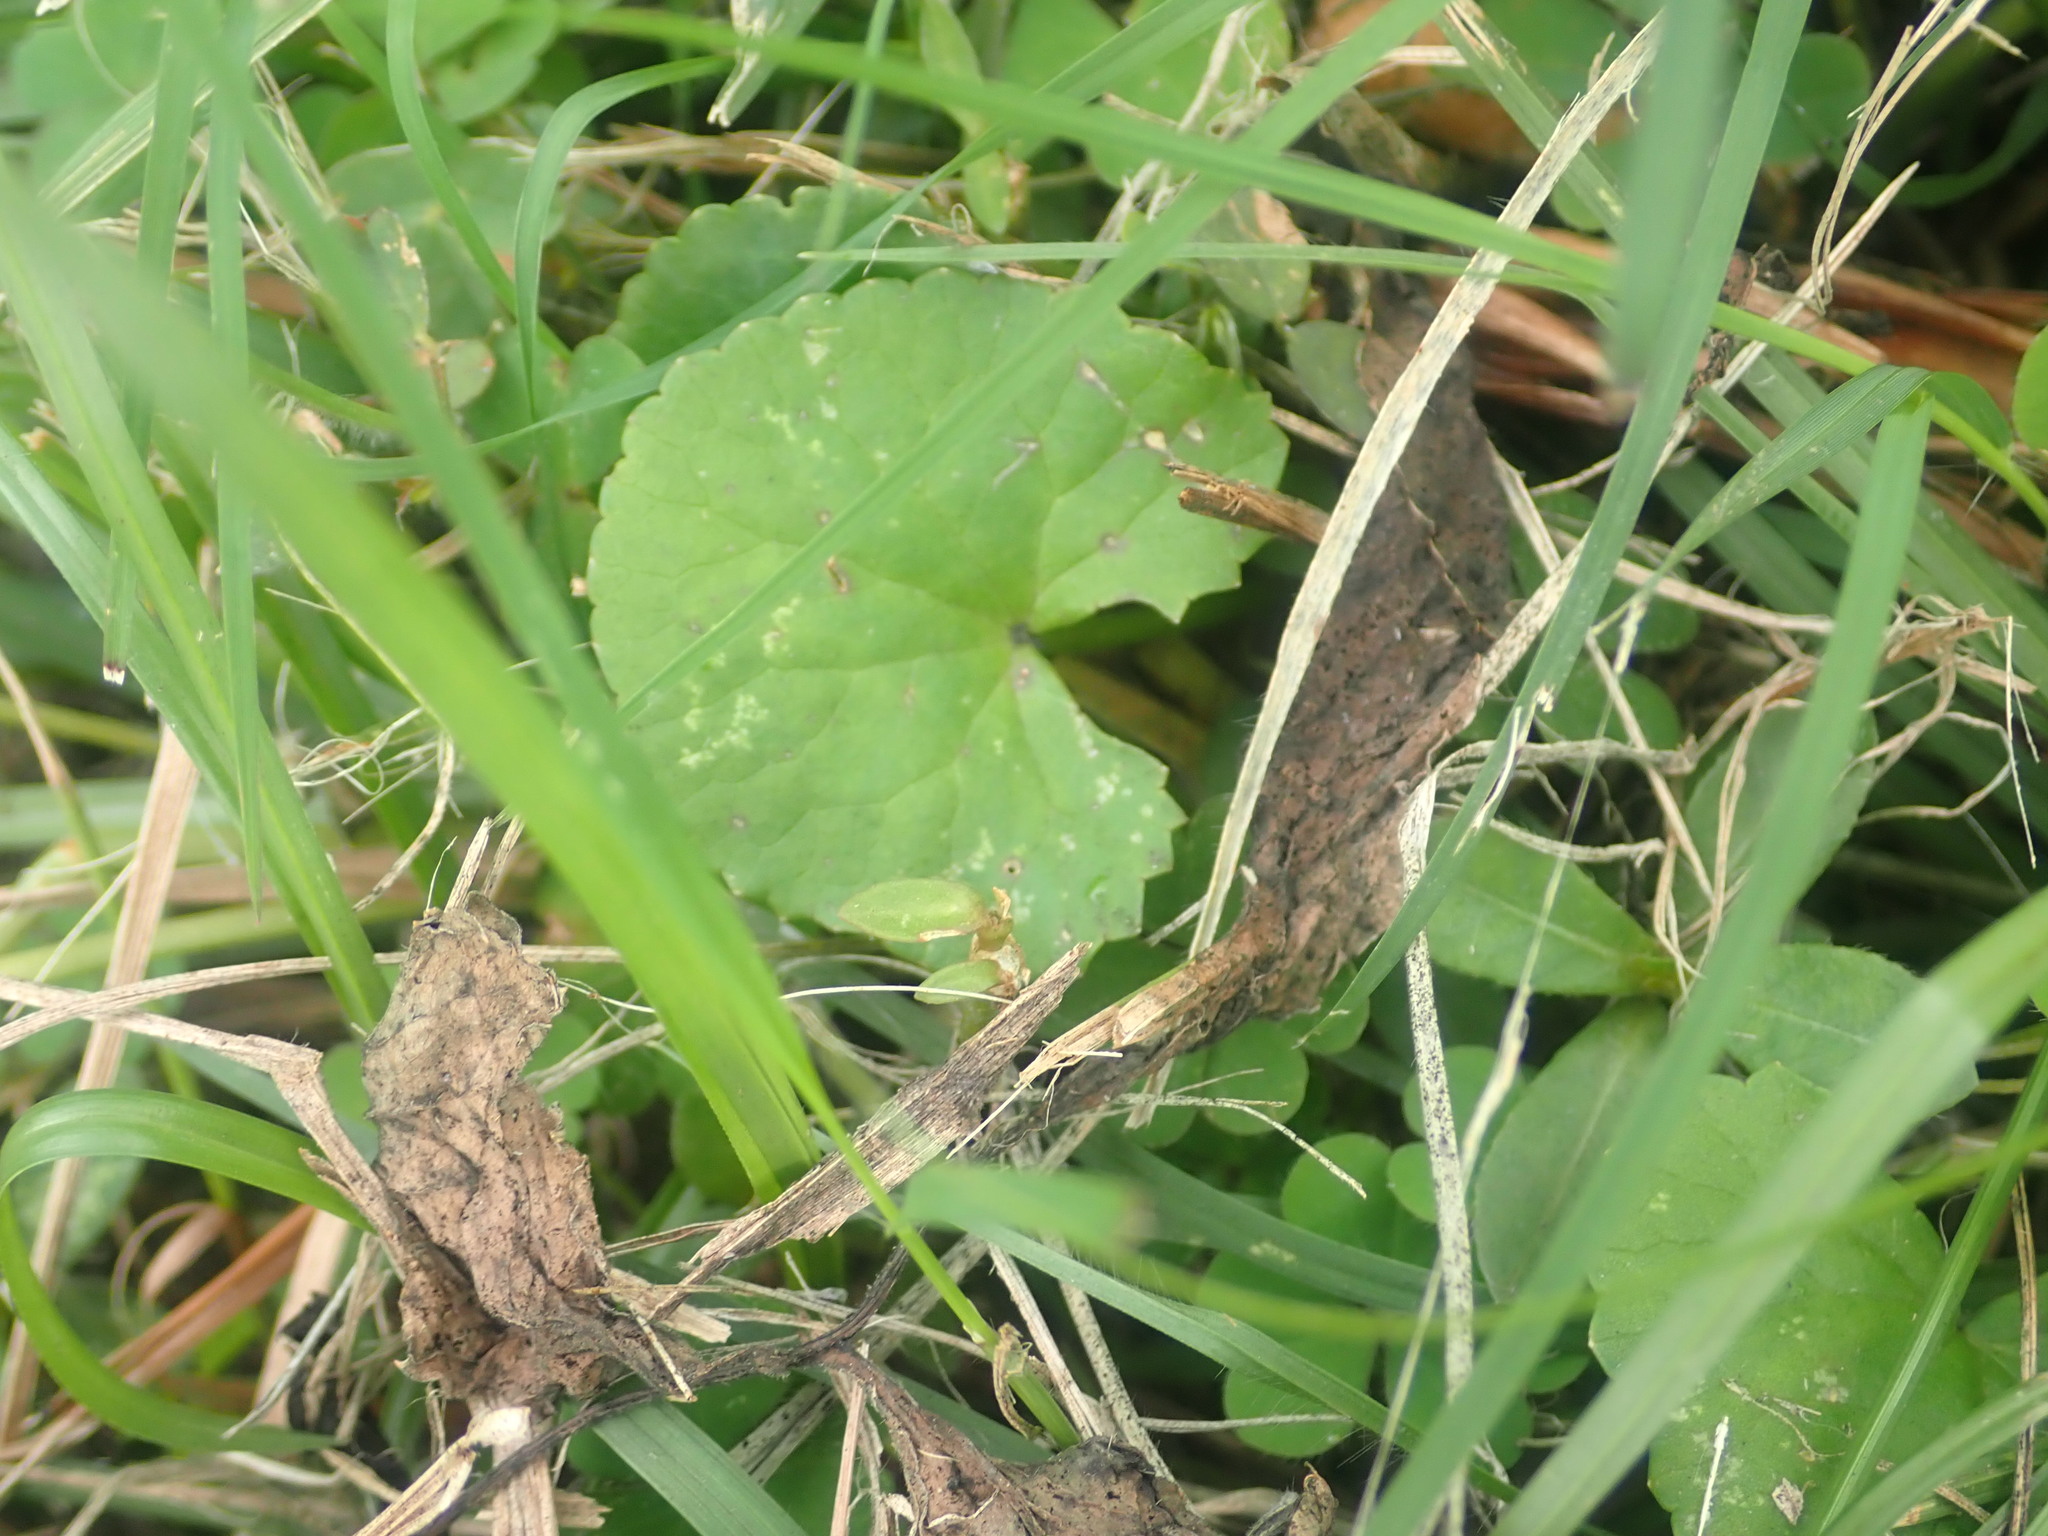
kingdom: Plantae
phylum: Tracheophyta
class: Magnoliopsida
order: Apiales
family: Apiaceae
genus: Centella
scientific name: Centella asiatica
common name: Spadeleaf
